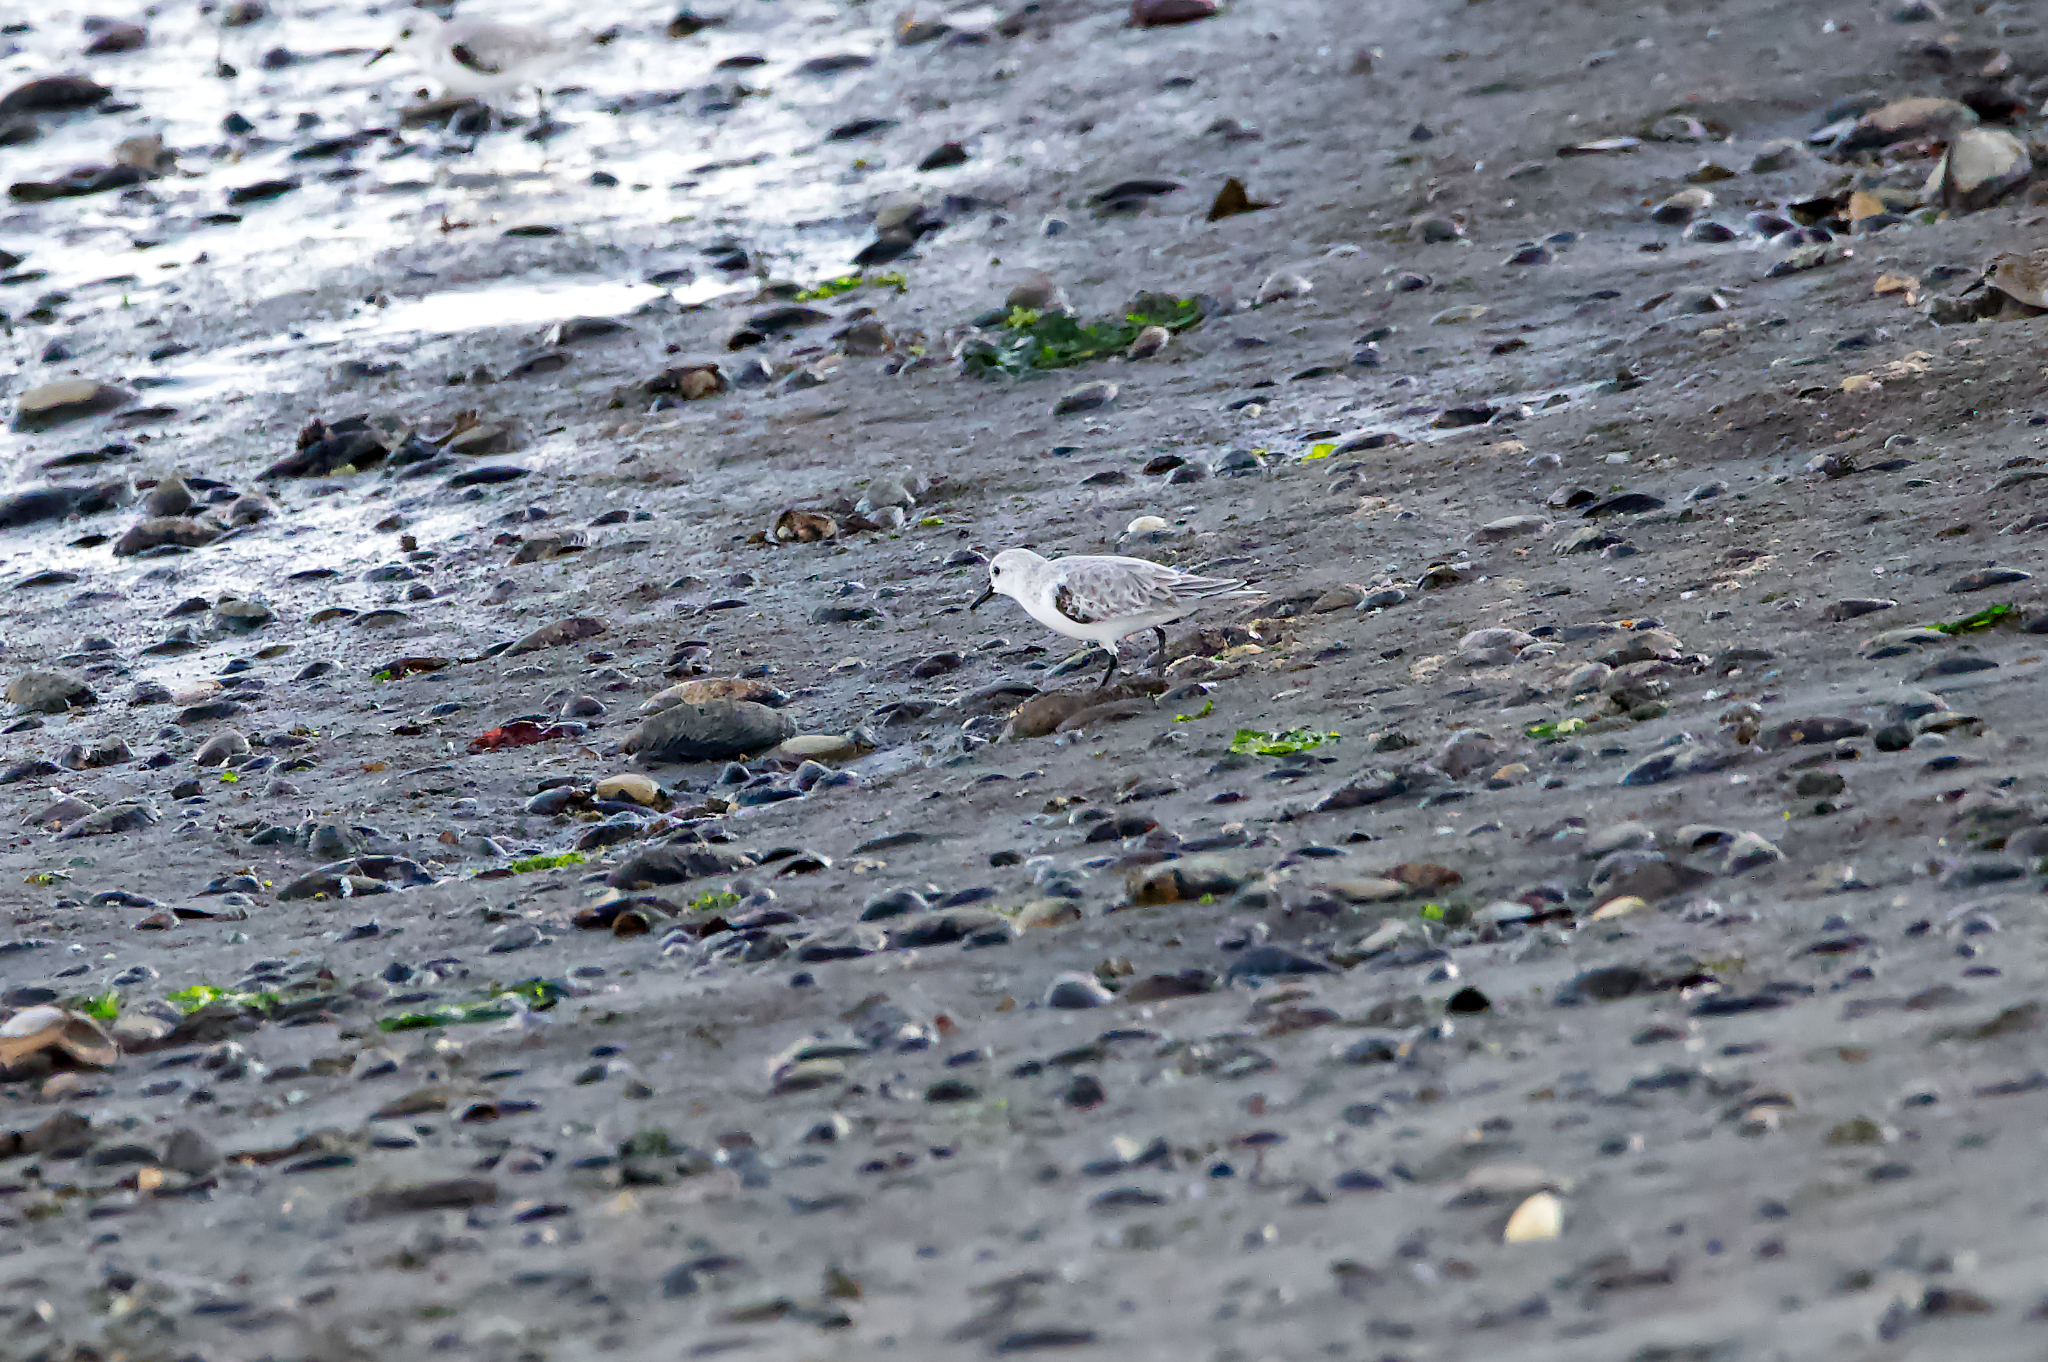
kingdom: Animalia
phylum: Chordata
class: Aves
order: Charadriiformes
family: Scolopacidae
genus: Calidris
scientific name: Calidris alba
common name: Sanderling
